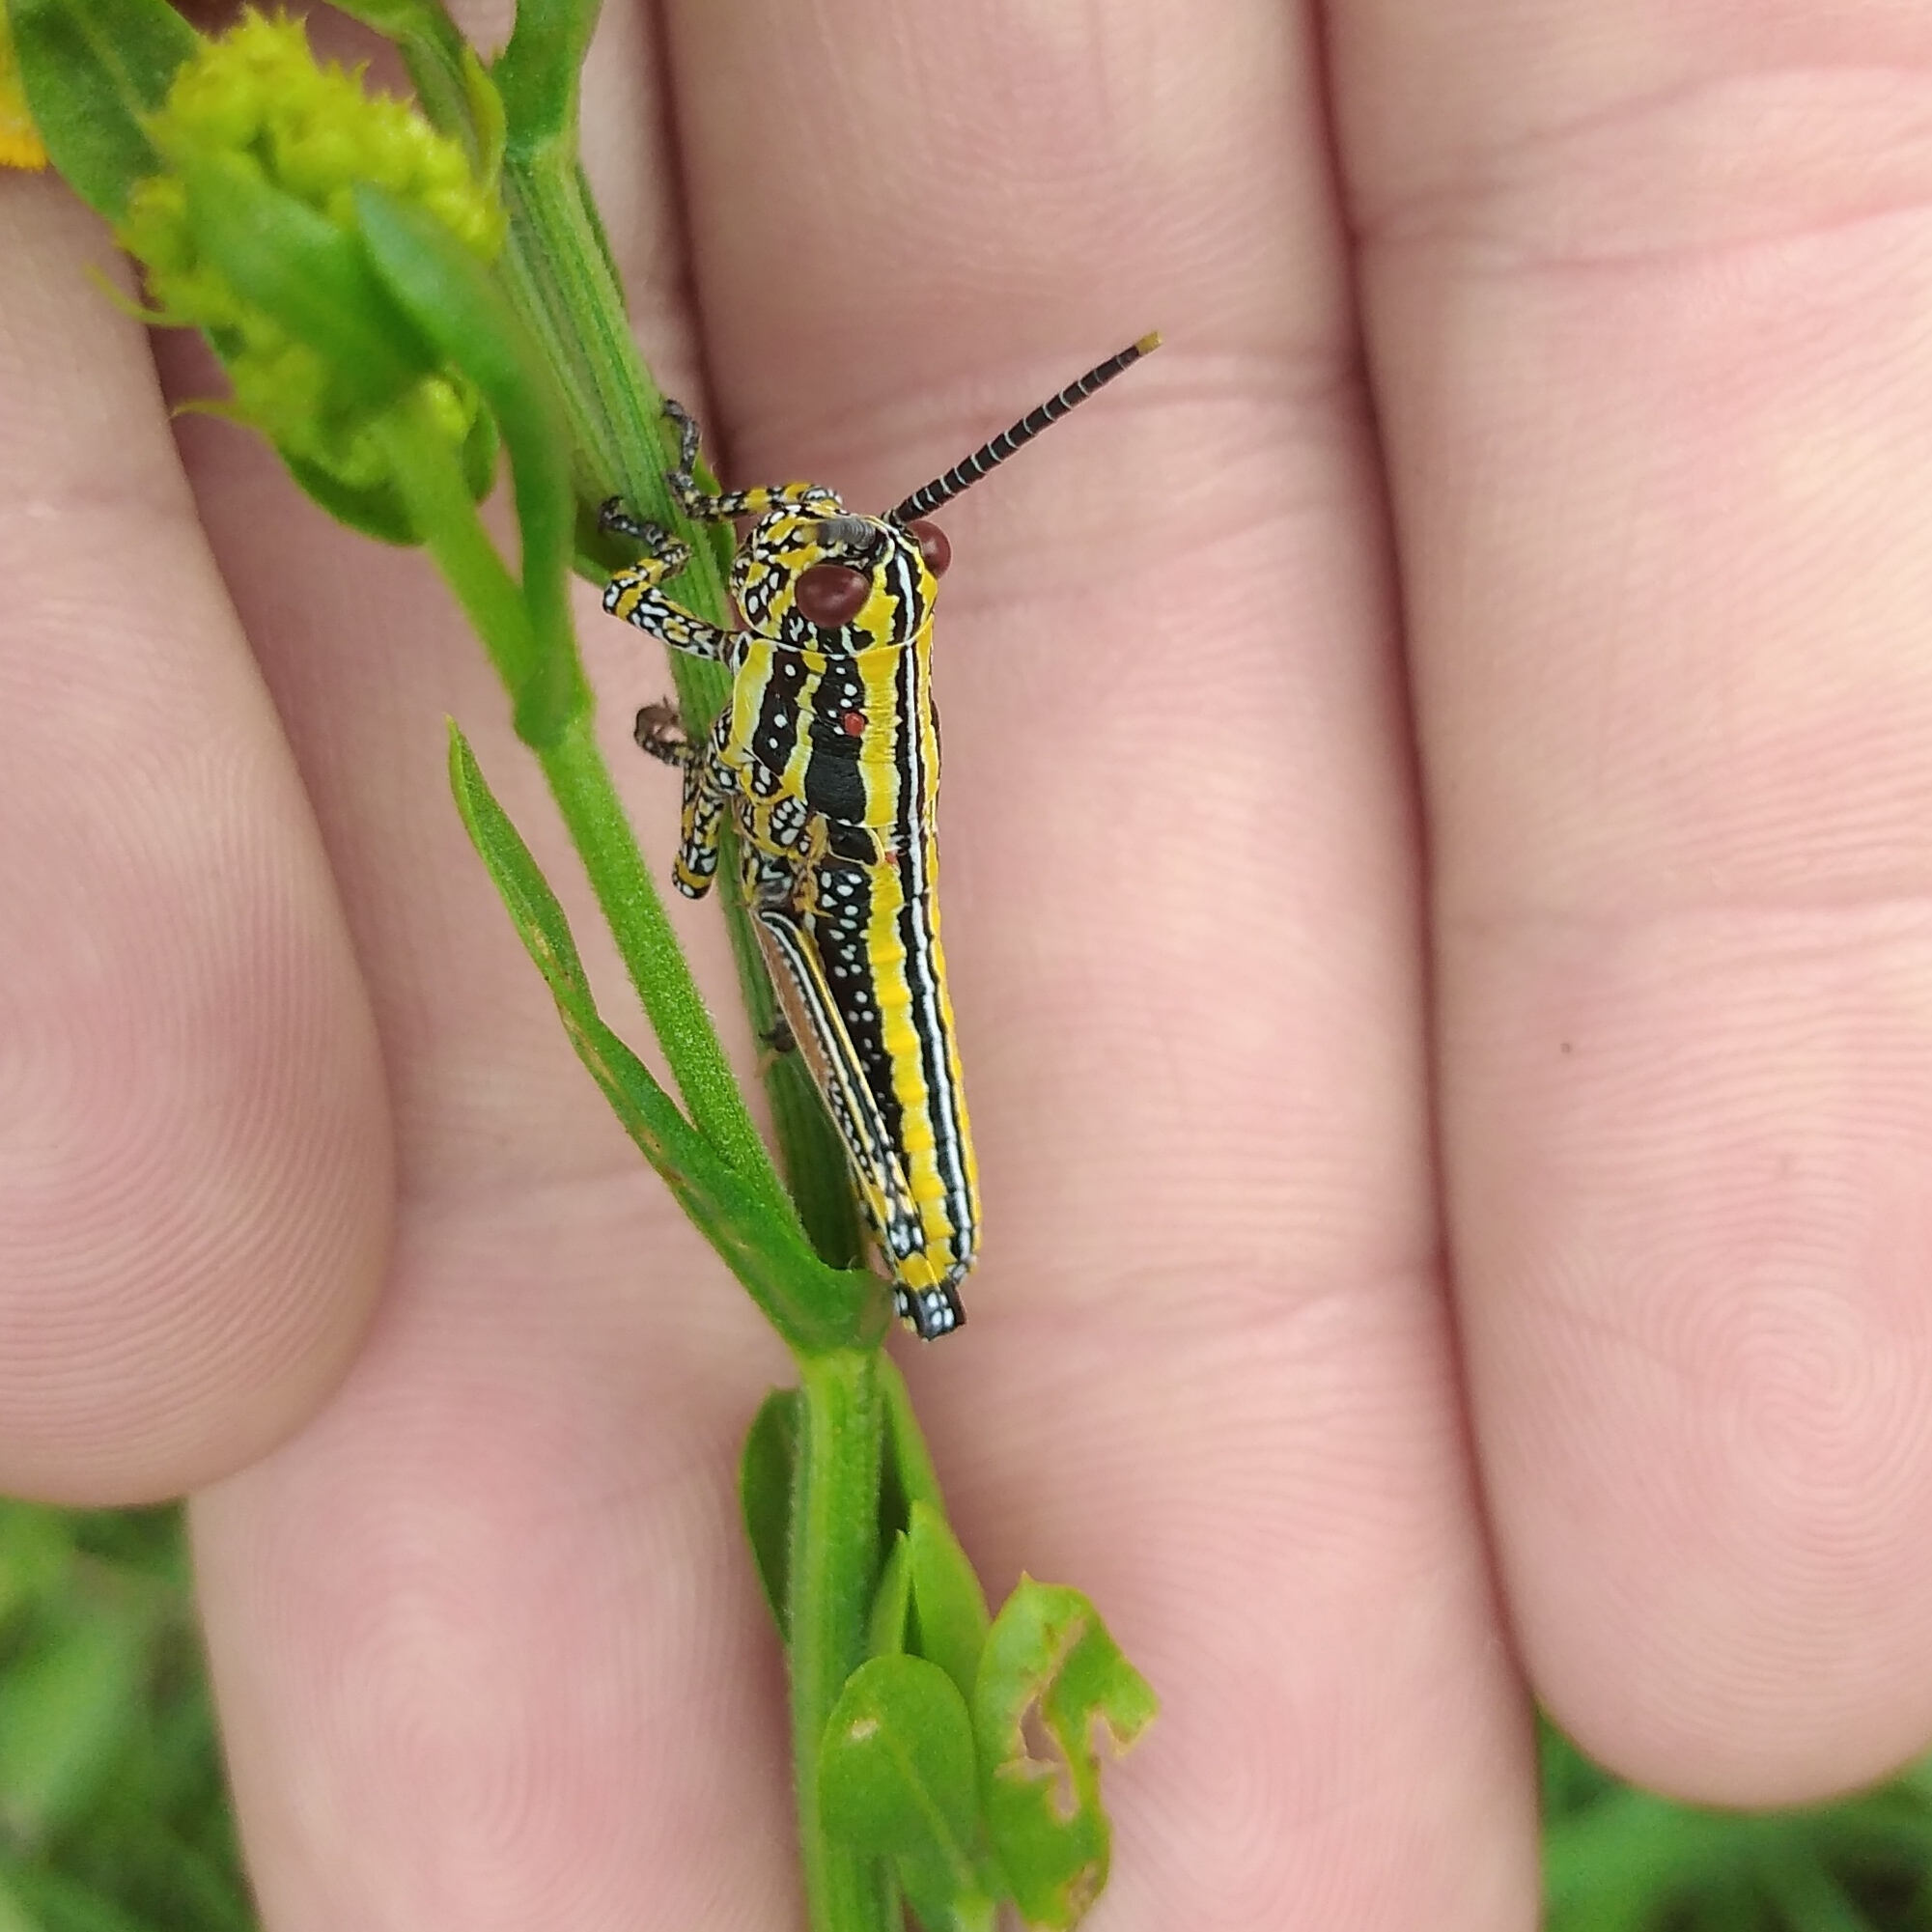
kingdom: Animalia
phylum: Arthropoda
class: Insecta
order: Orthoptera
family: Pyrgomorphidae
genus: Zonocerus
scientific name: Zonocerus elegans
